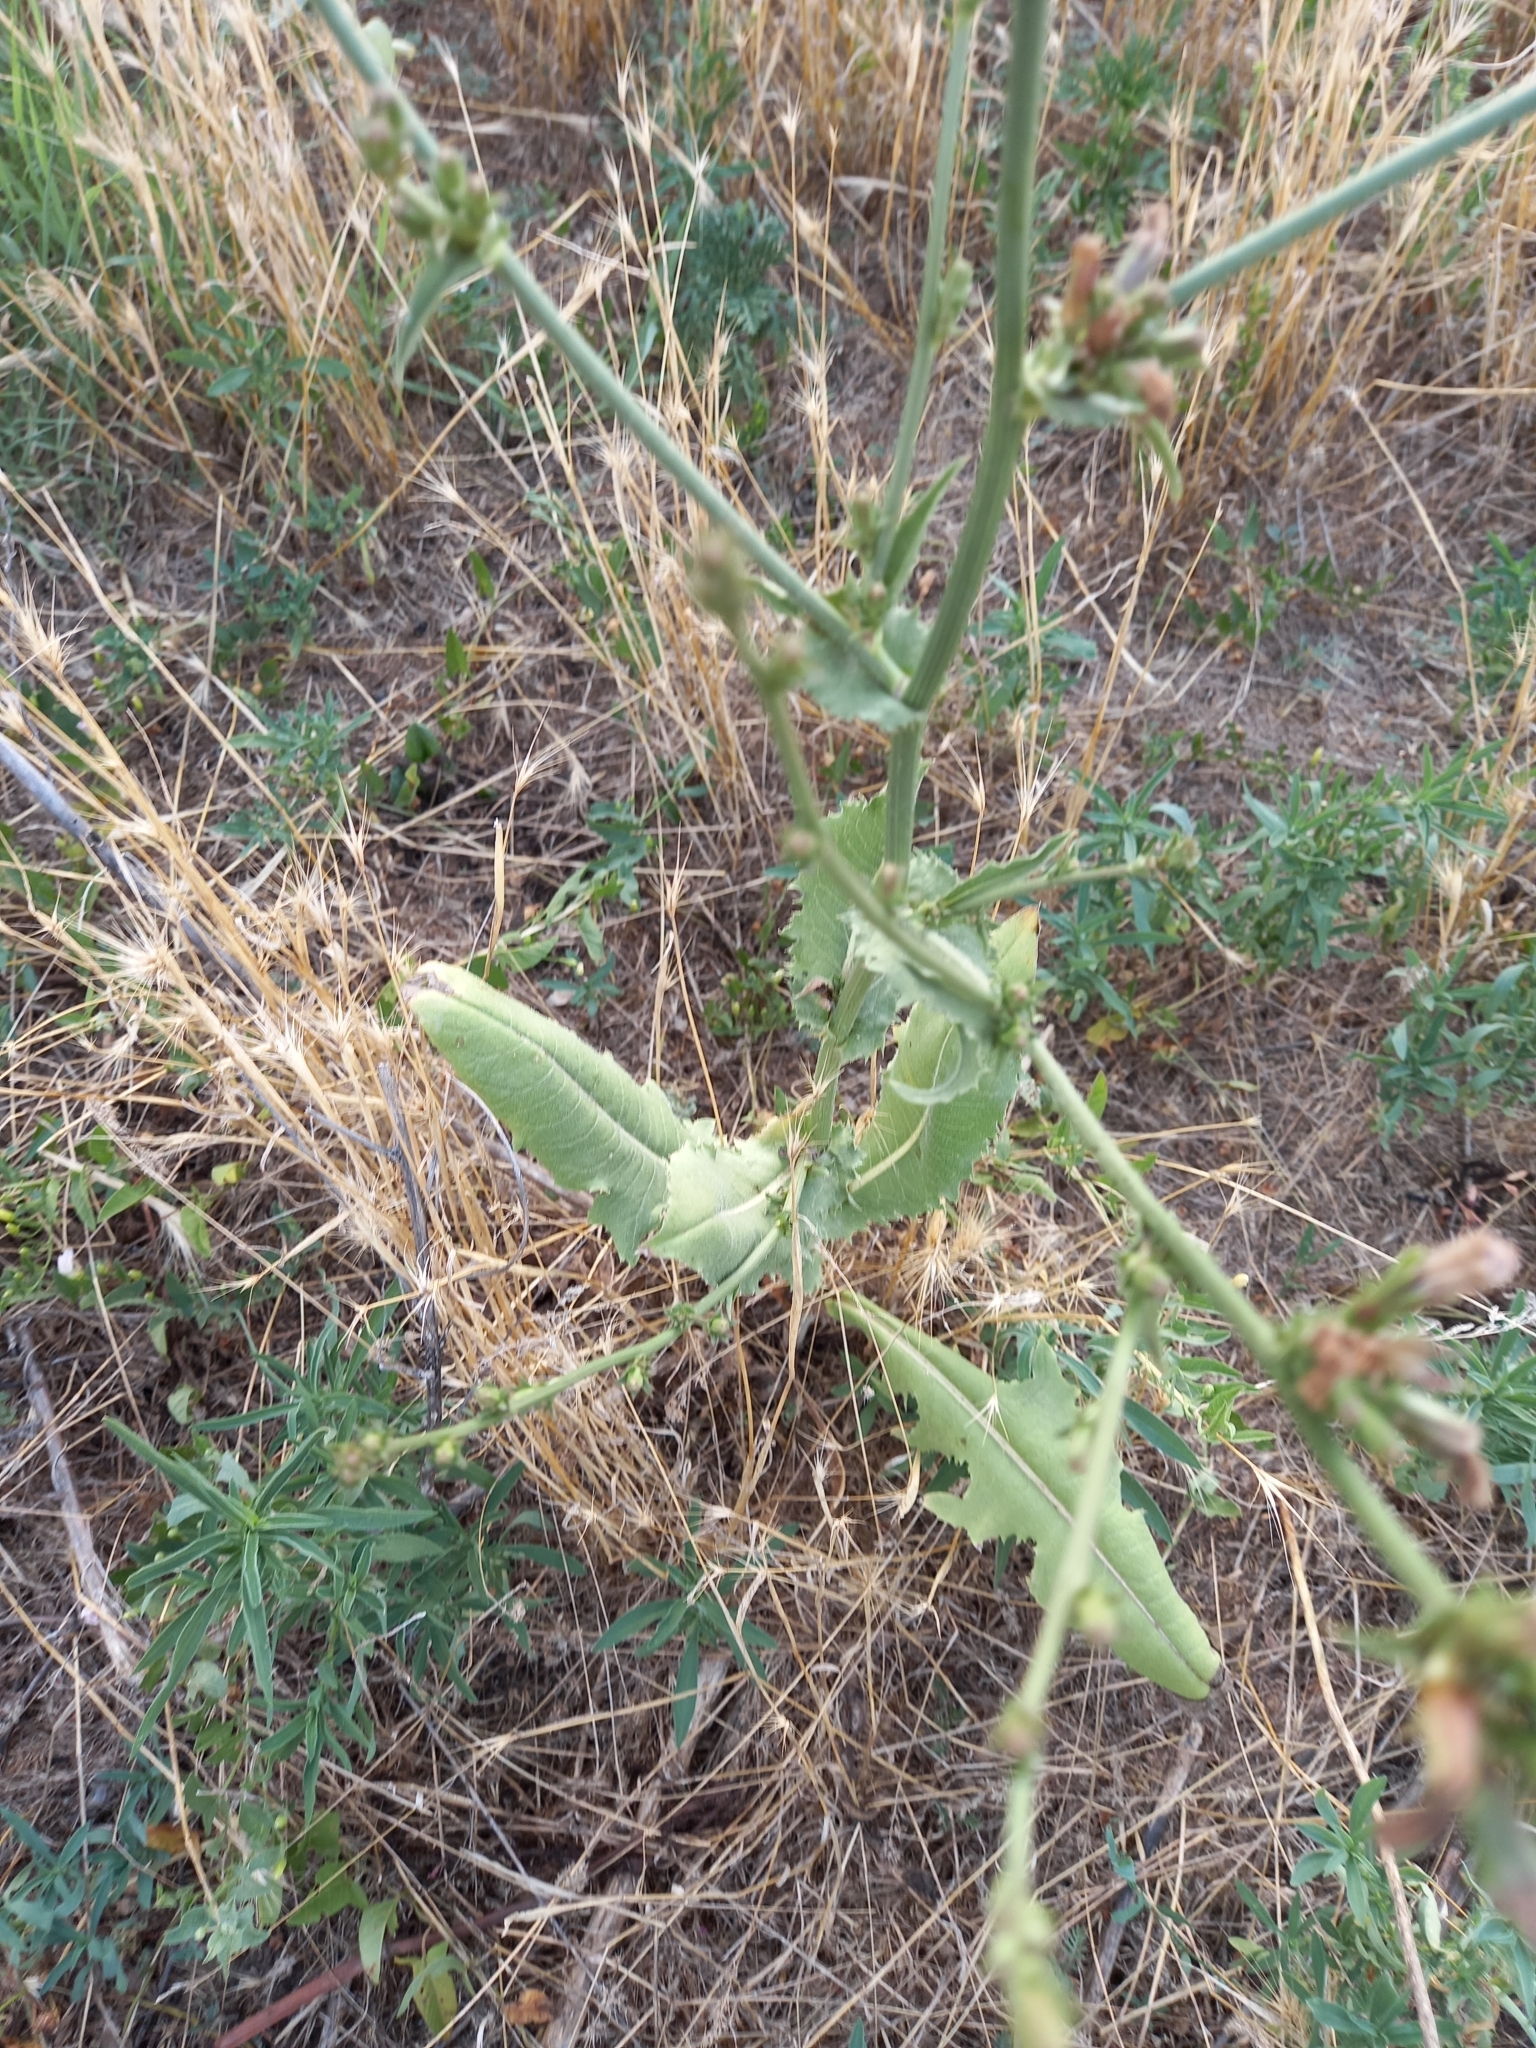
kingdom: Plantae
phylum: Tracheophyta
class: Magnoliopsida
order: Asterales
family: Asteraceae
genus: Cichorium
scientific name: Cichorium intybus
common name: Chicory
